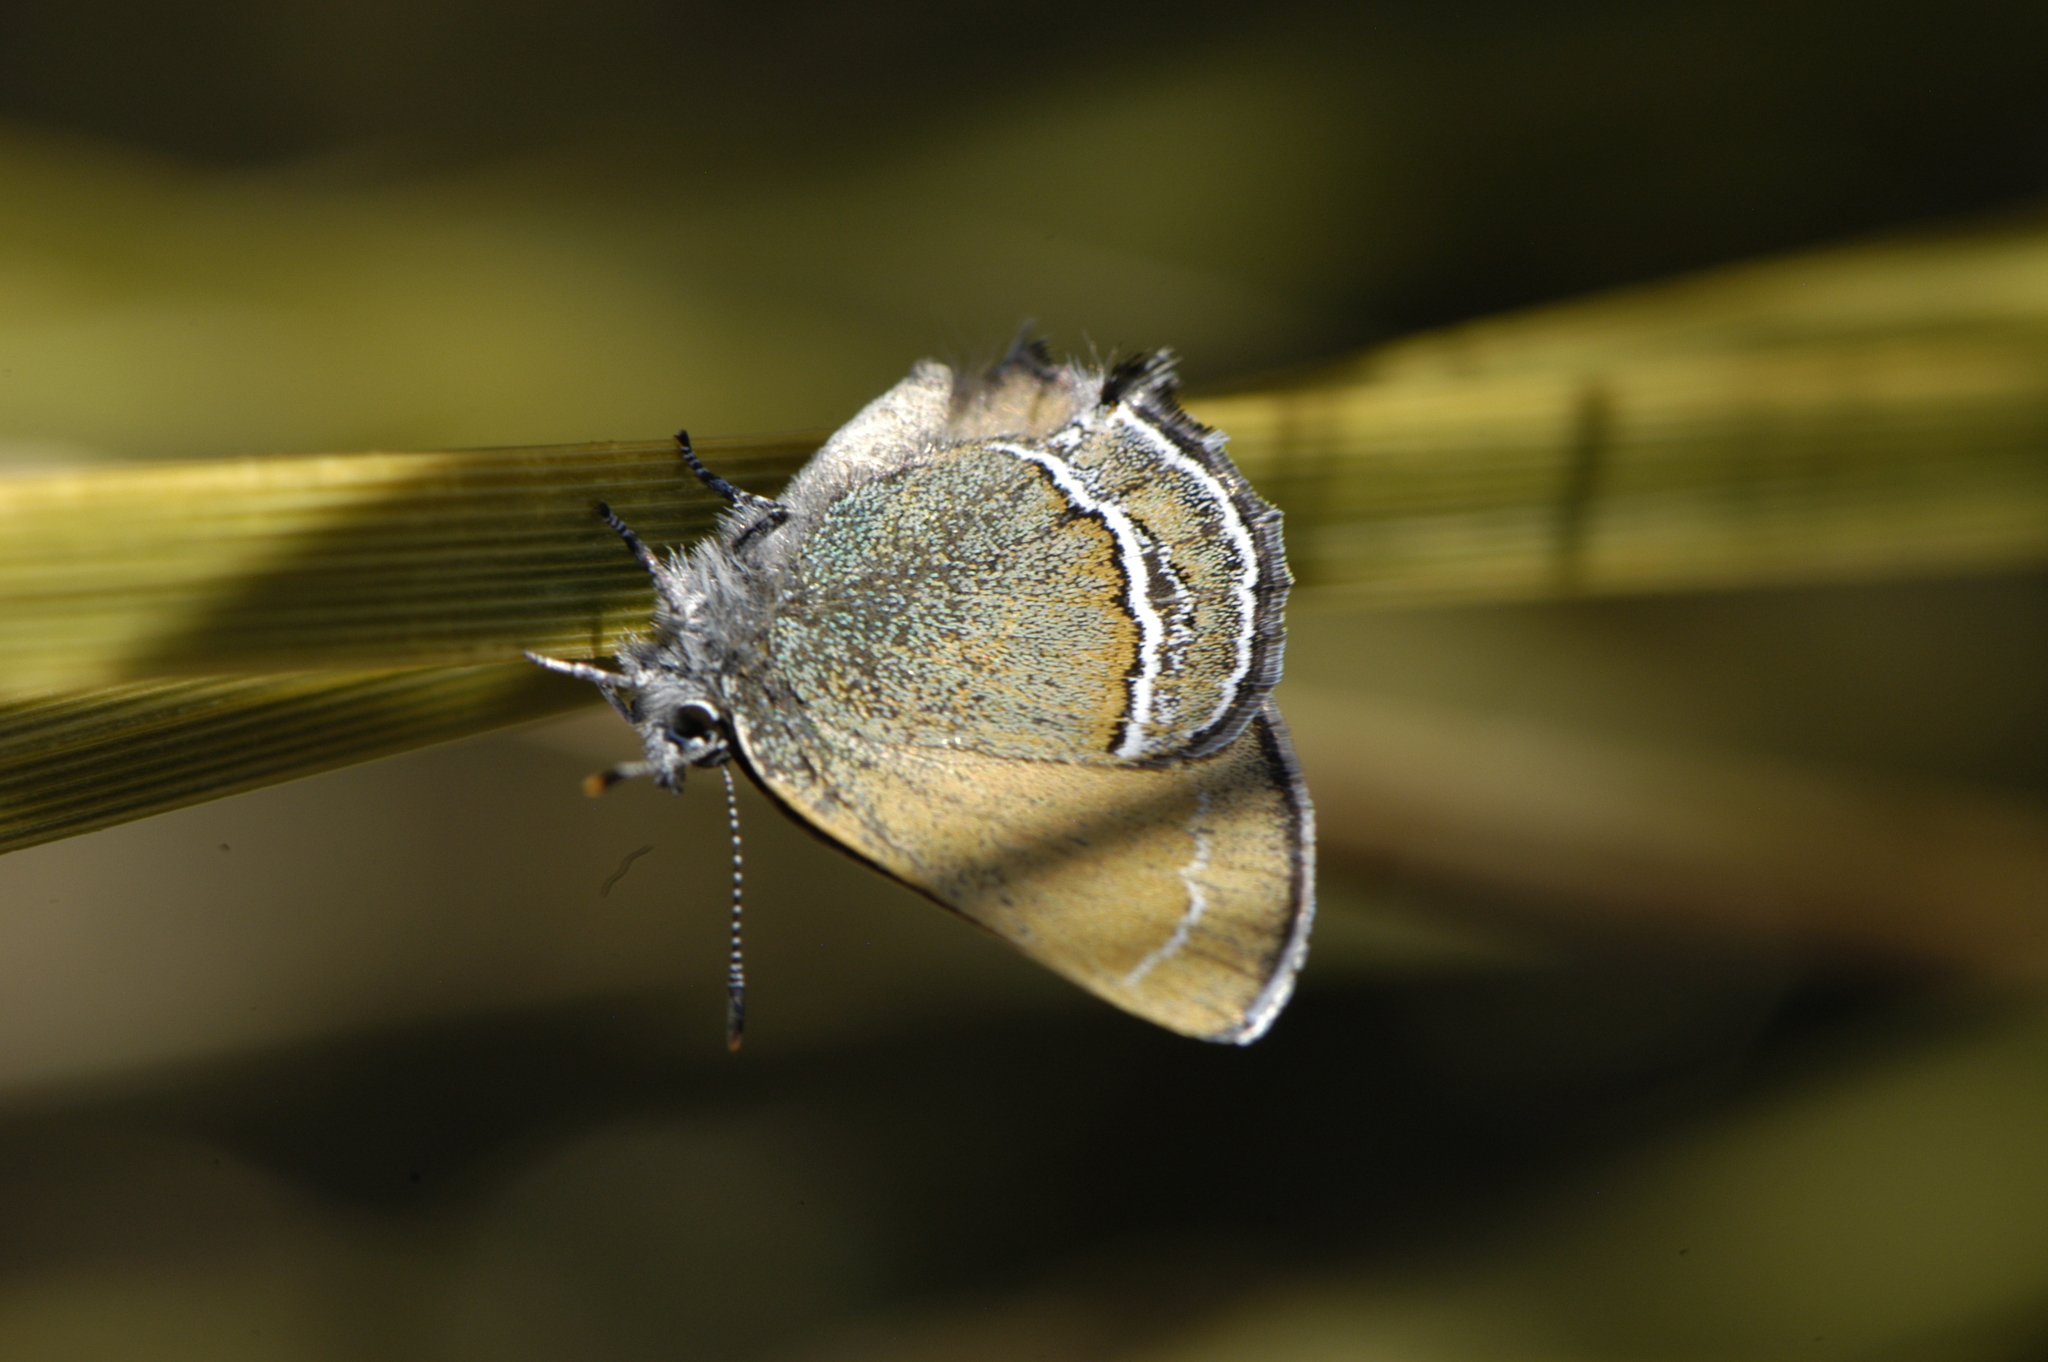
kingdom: Animalia
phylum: Arthropoda
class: Insecta
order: Lepidoptera
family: Lycaenidae
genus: Sandia
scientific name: Sandia mcfarlandi
